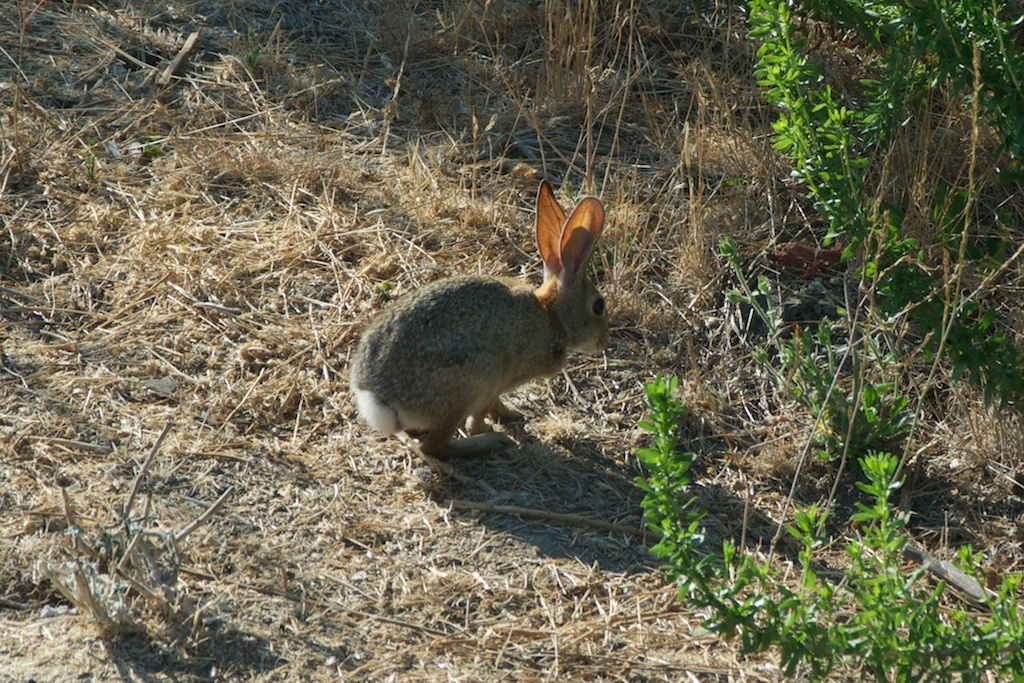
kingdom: Animalia
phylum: Chordata
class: Mammalia
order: Lagomorpha
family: Leporidae
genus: Sylvilagus
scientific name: Sylvilagus audubonii
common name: Desert cottontail
